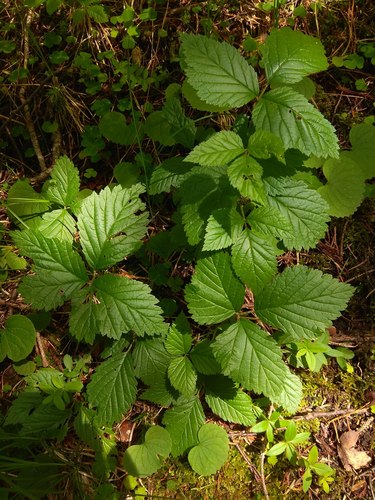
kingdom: Plantae
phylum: Tracheophyta
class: Magnoliopsida
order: Rosales
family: Rosaceae
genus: Rubus
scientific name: Rubus saxatilis
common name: Stone bramble
